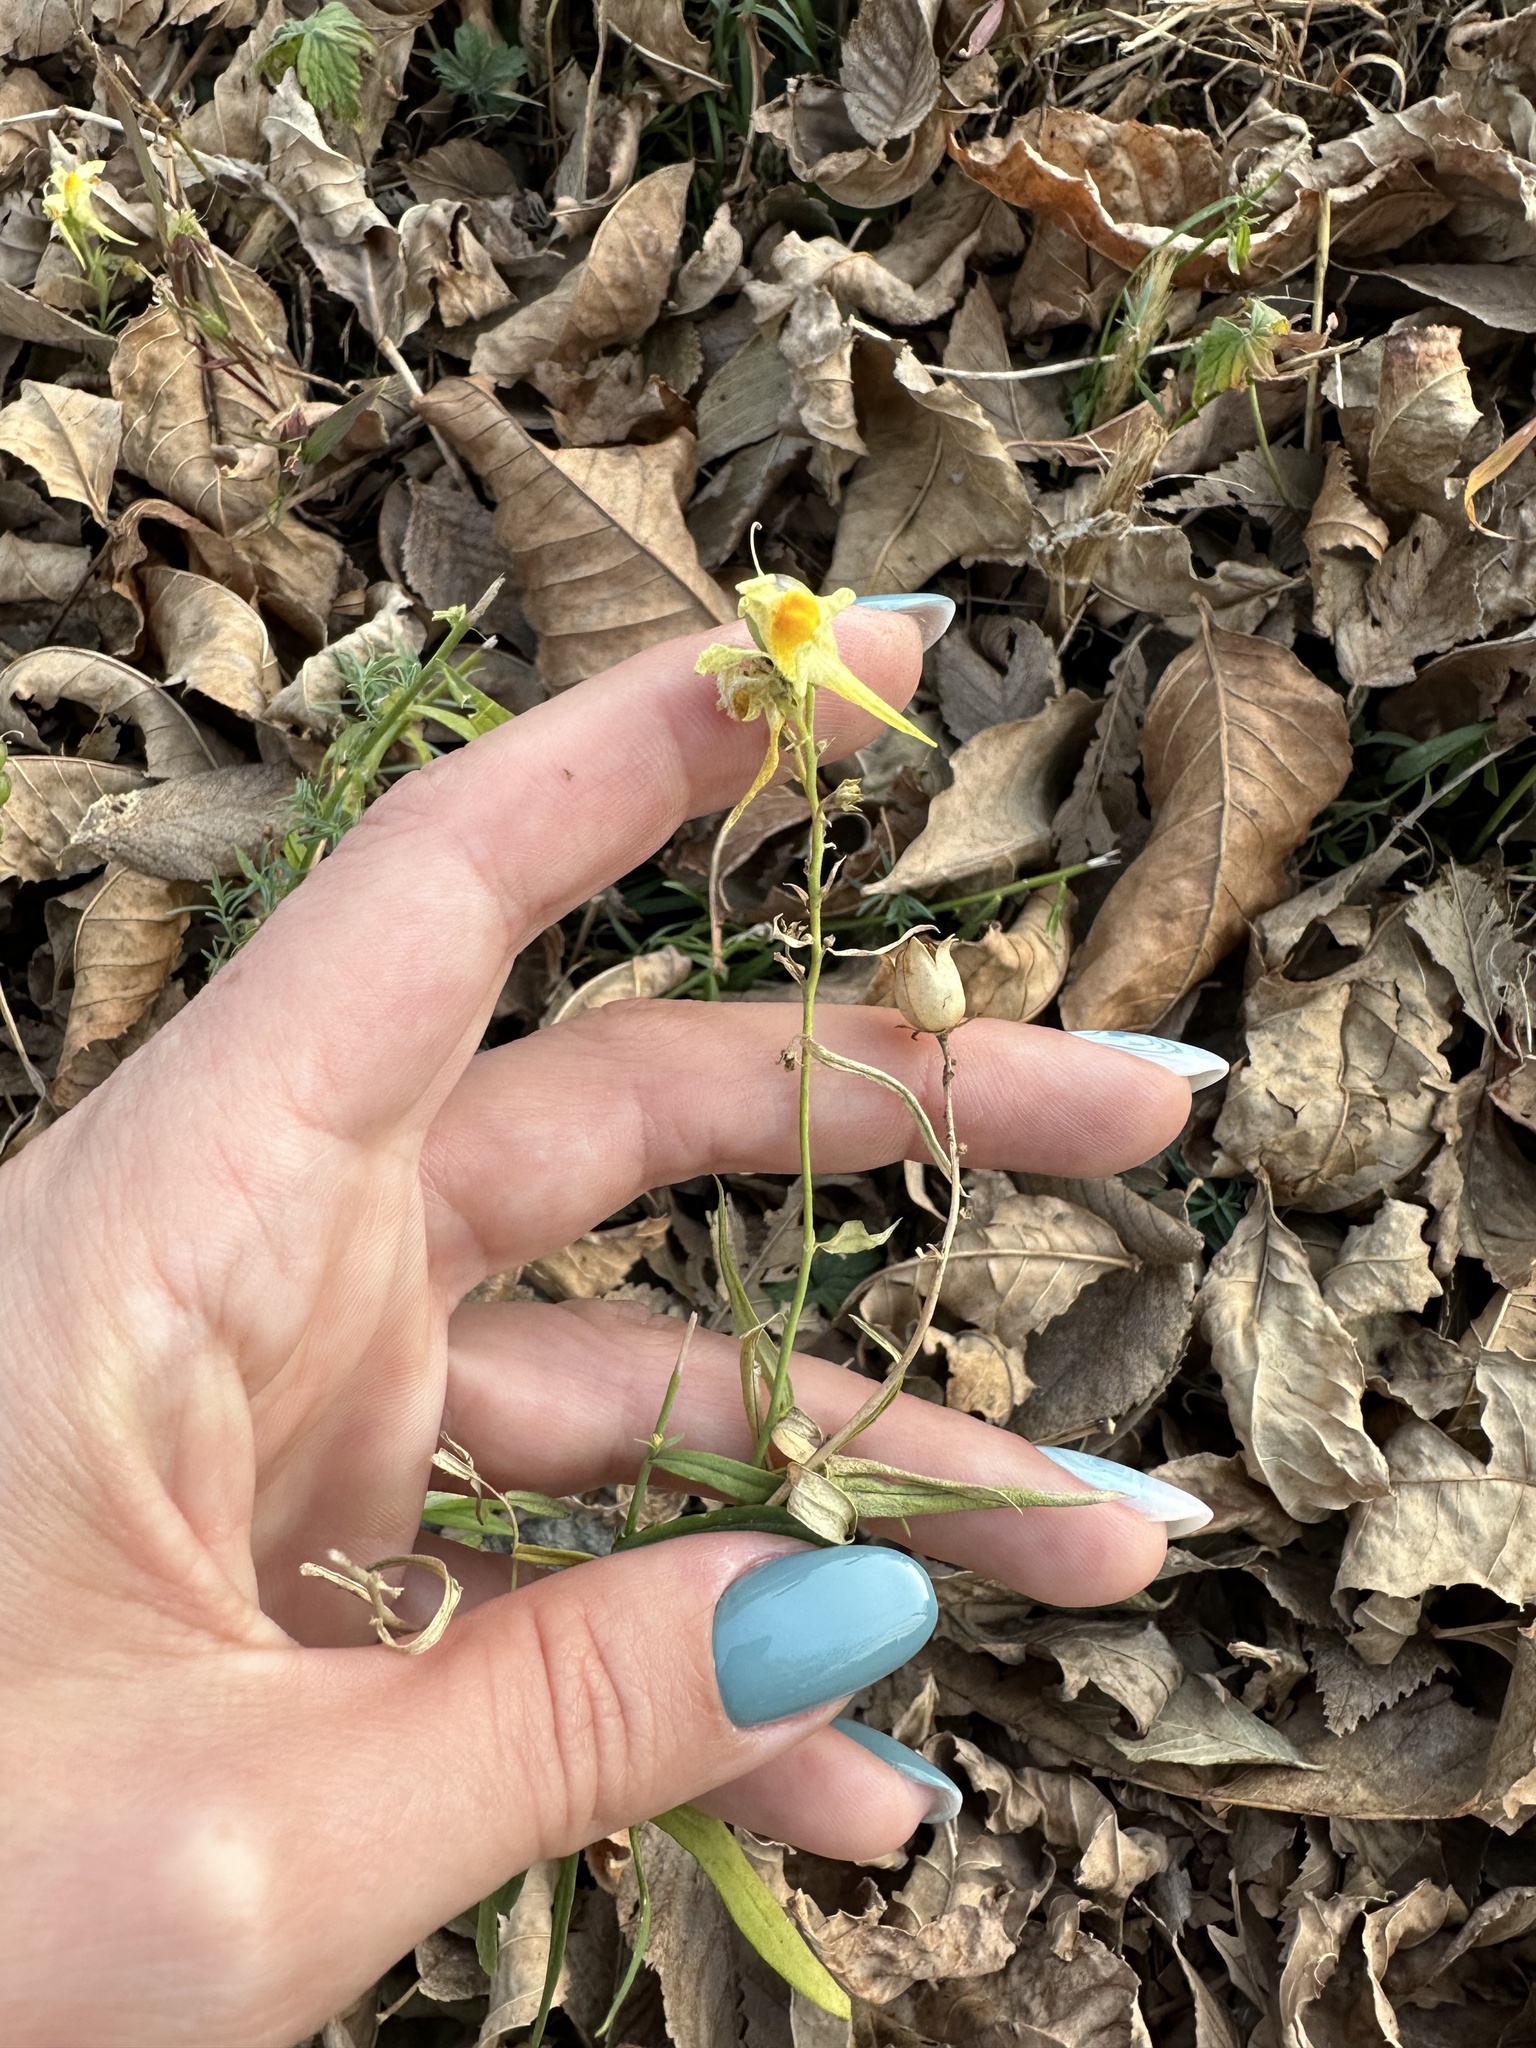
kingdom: Plantae
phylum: Tracheophyta
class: Magnoliopsida
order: Lamiales
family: Plantaginaceae
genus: Linaria
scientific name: Linaria vulgaris
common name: Butter and eggs
